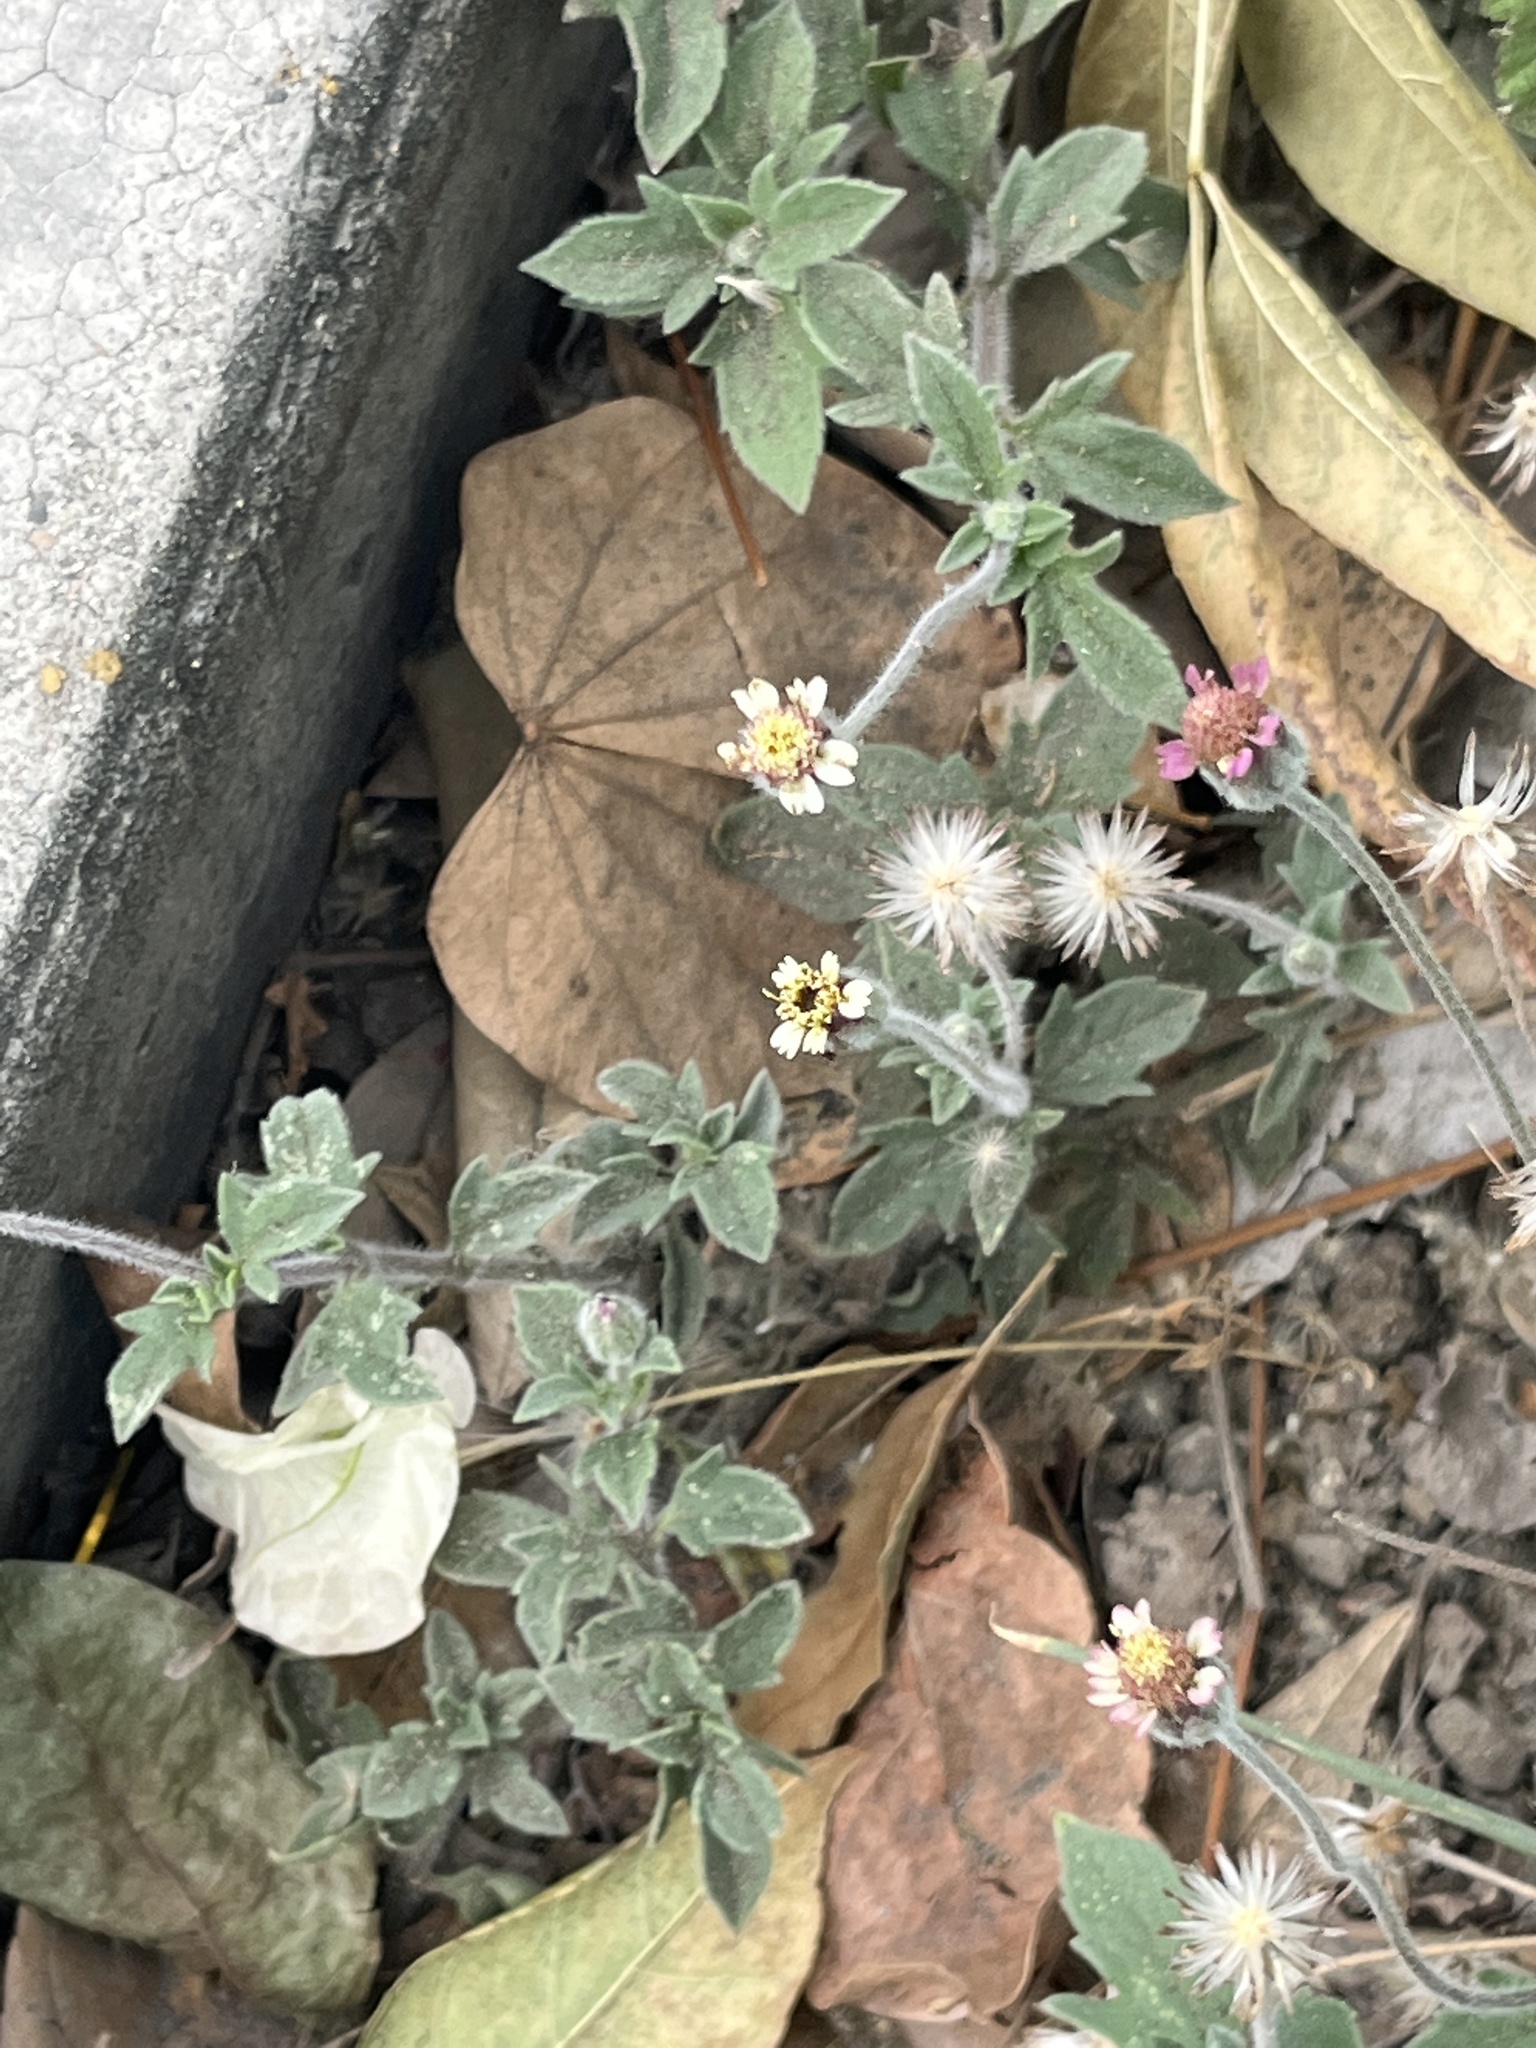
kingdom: Plantae
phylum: Tracheophyta
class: Magnoliopsida
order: Asterales
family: Asteraceae
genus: Tridax
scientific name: Tridax procumbens
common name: Coatbuttons
